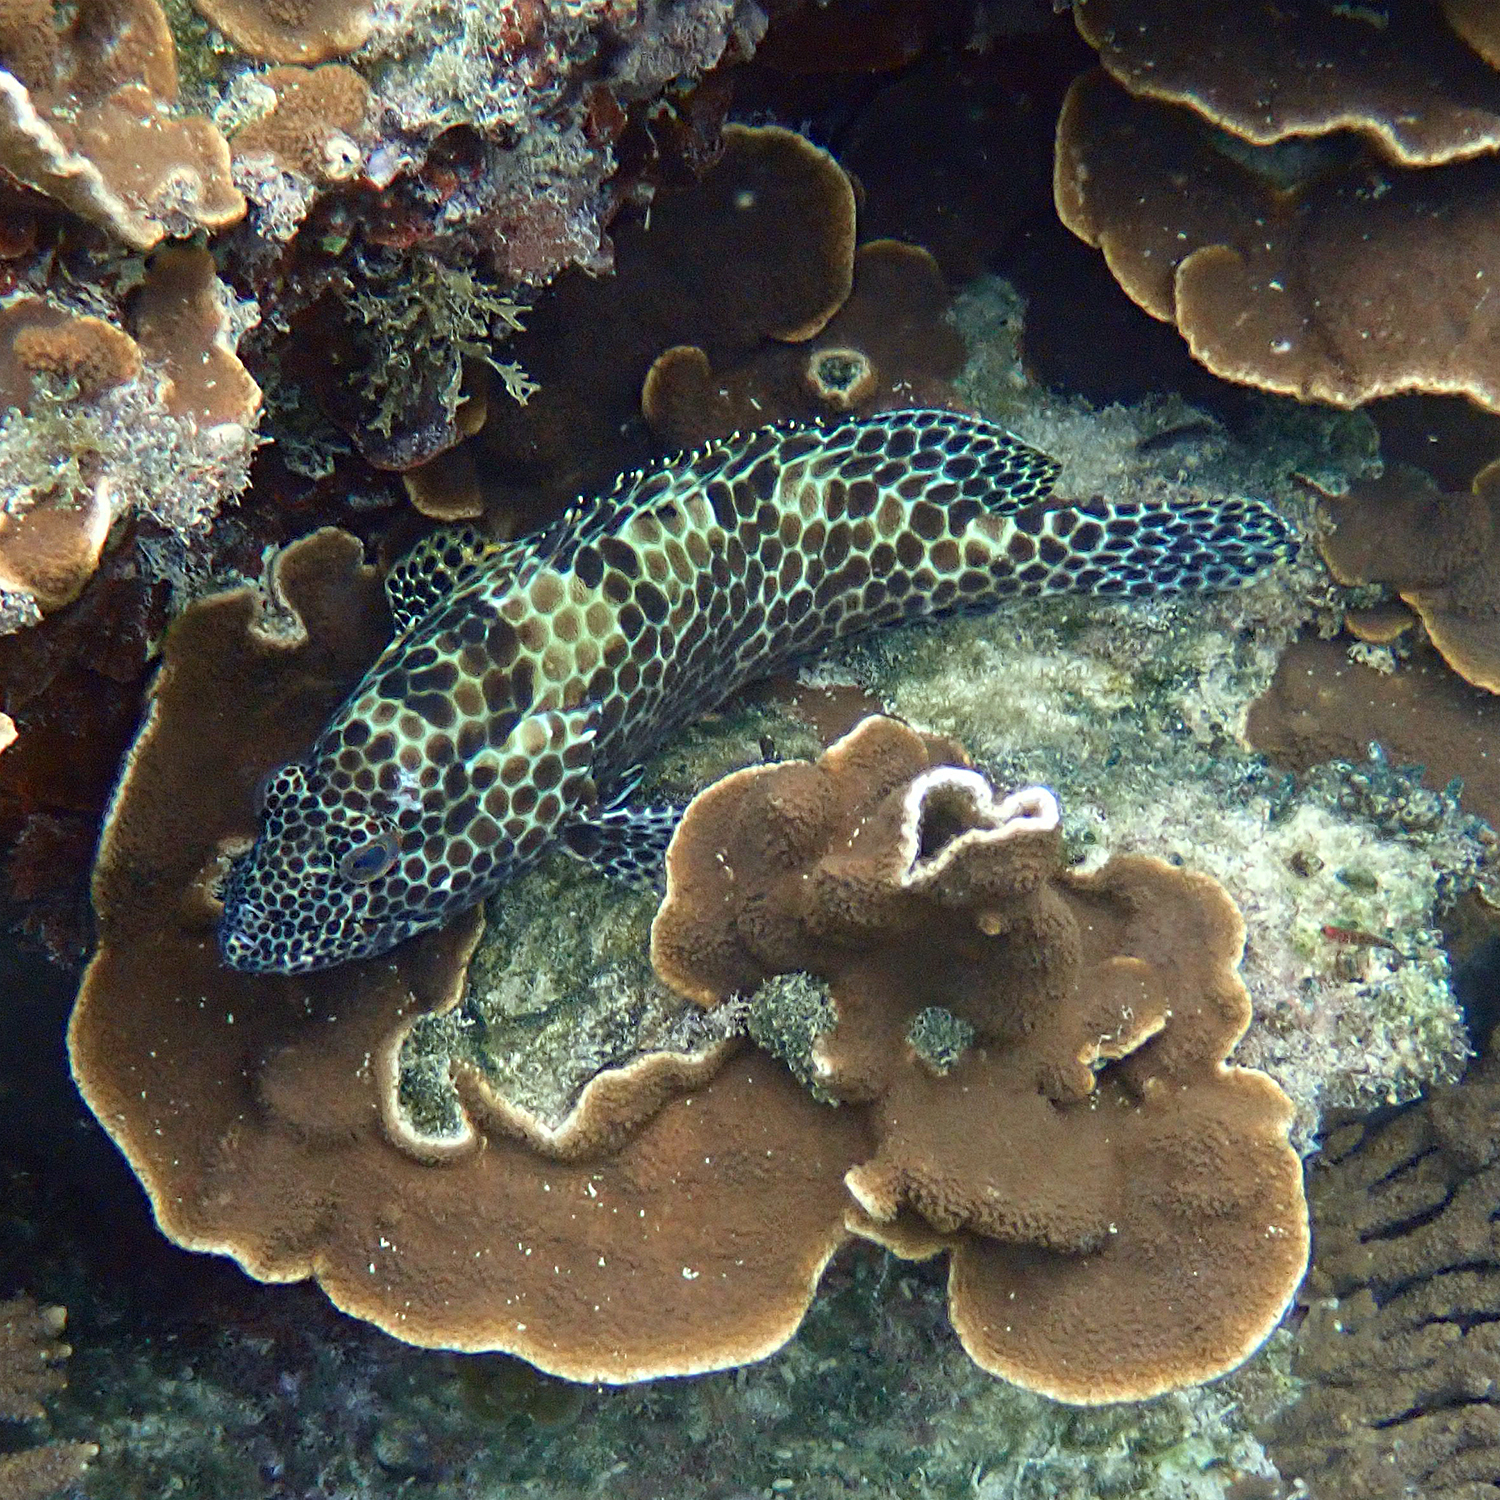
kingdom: Animalia
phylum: Chordata
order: Perciformes
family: Serranidae
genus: Epinephelus
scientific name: Epinephelus merra
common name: Honeycomb grouper
